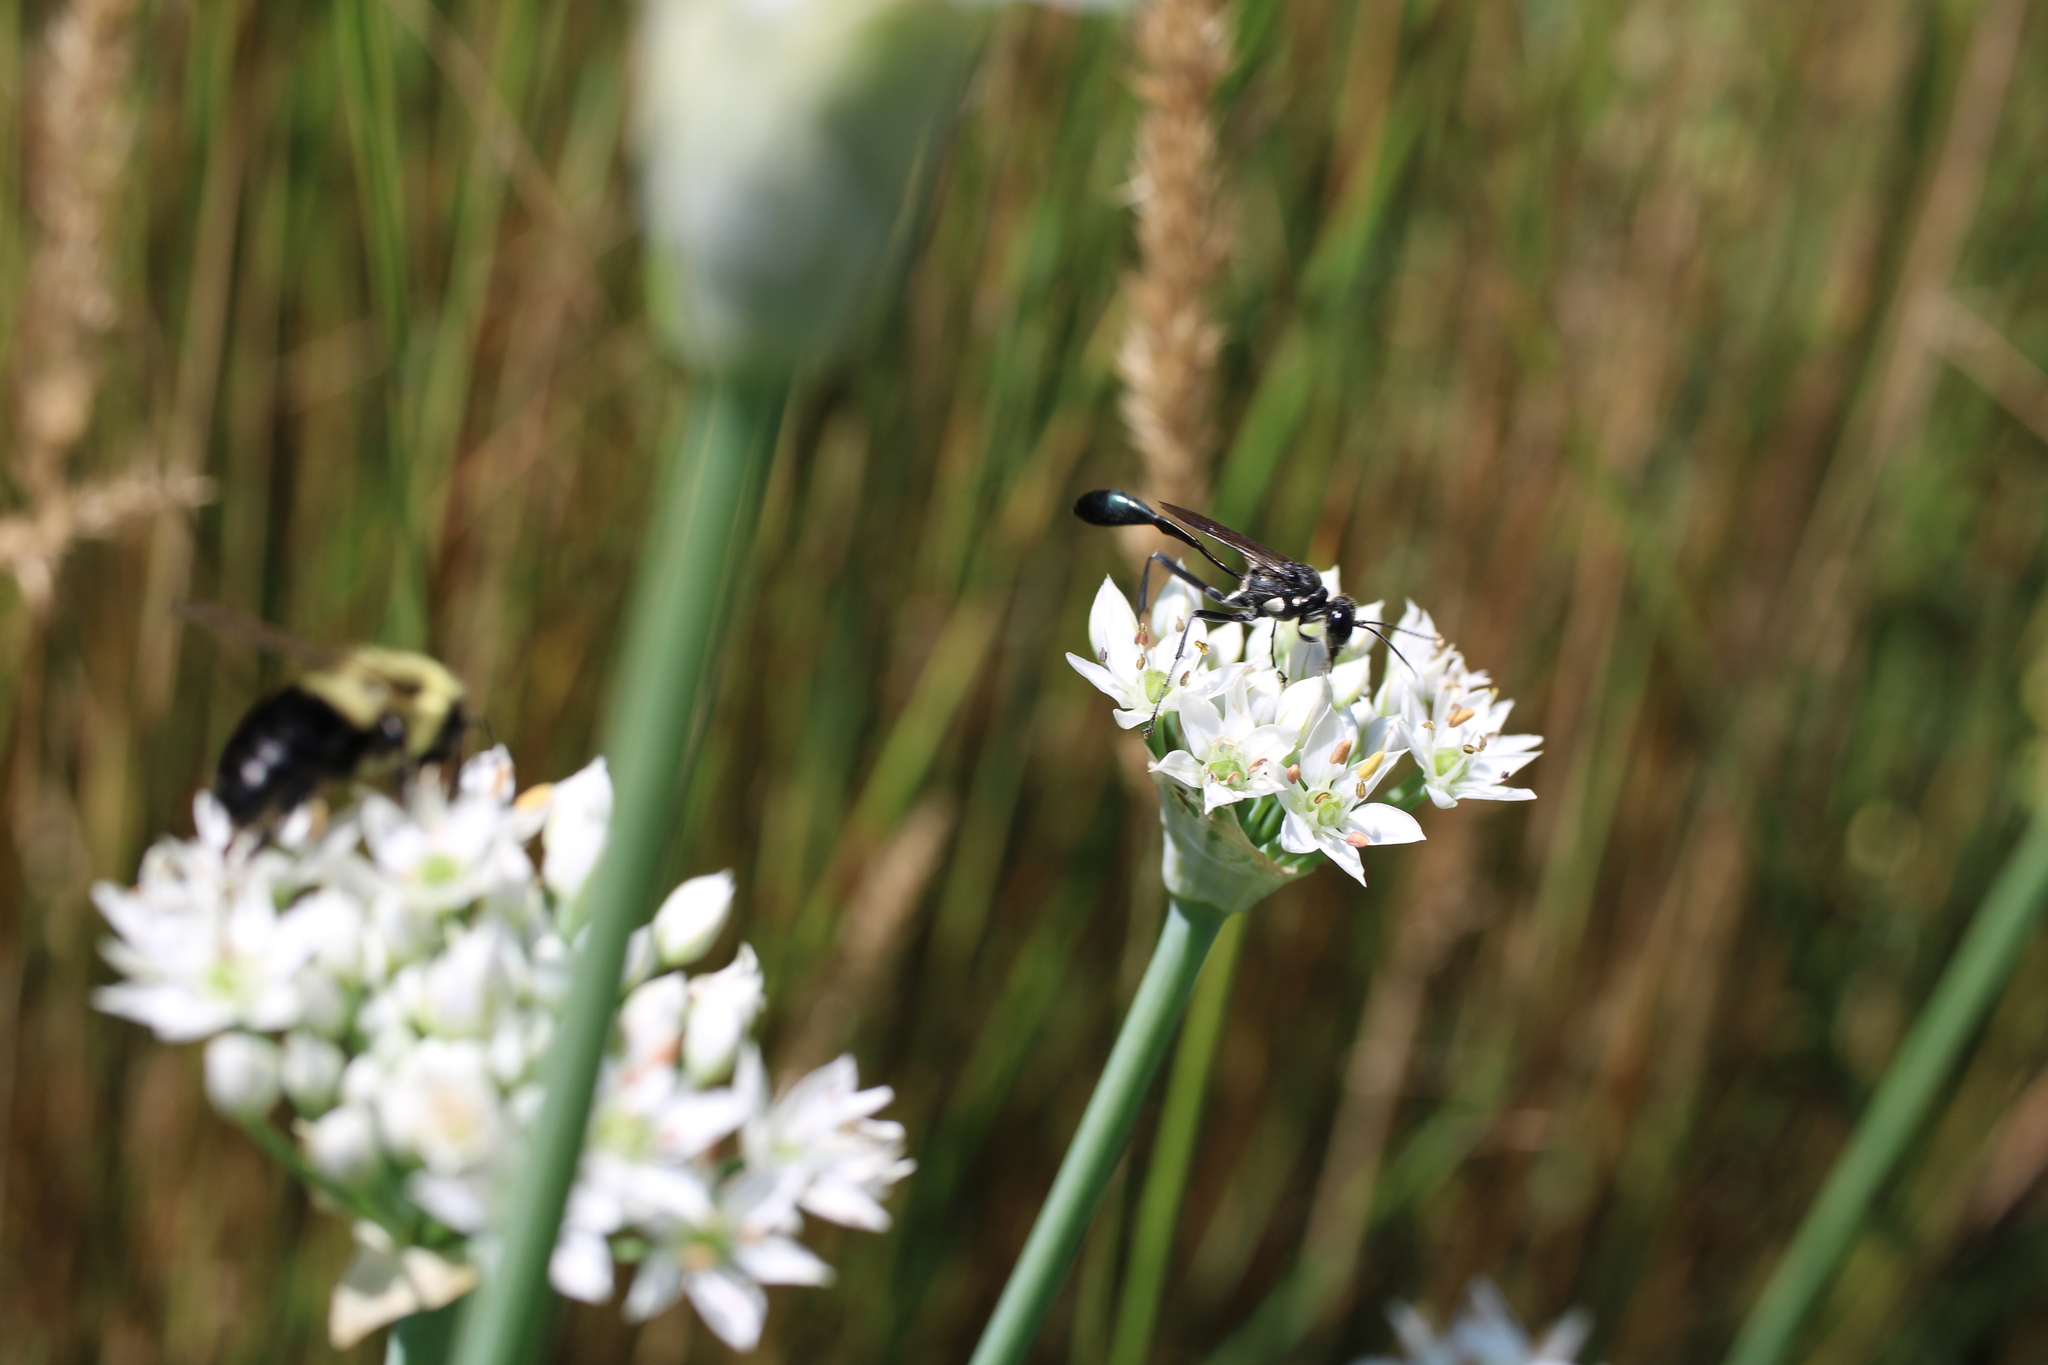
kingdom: Animalia
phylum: Arthropoda
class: Insecta
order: Hymenoptera
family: Sphecidae
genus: Eremnophila
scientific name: Eremnophila aureonotata
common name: Gold-marked thread-waisted wasp
